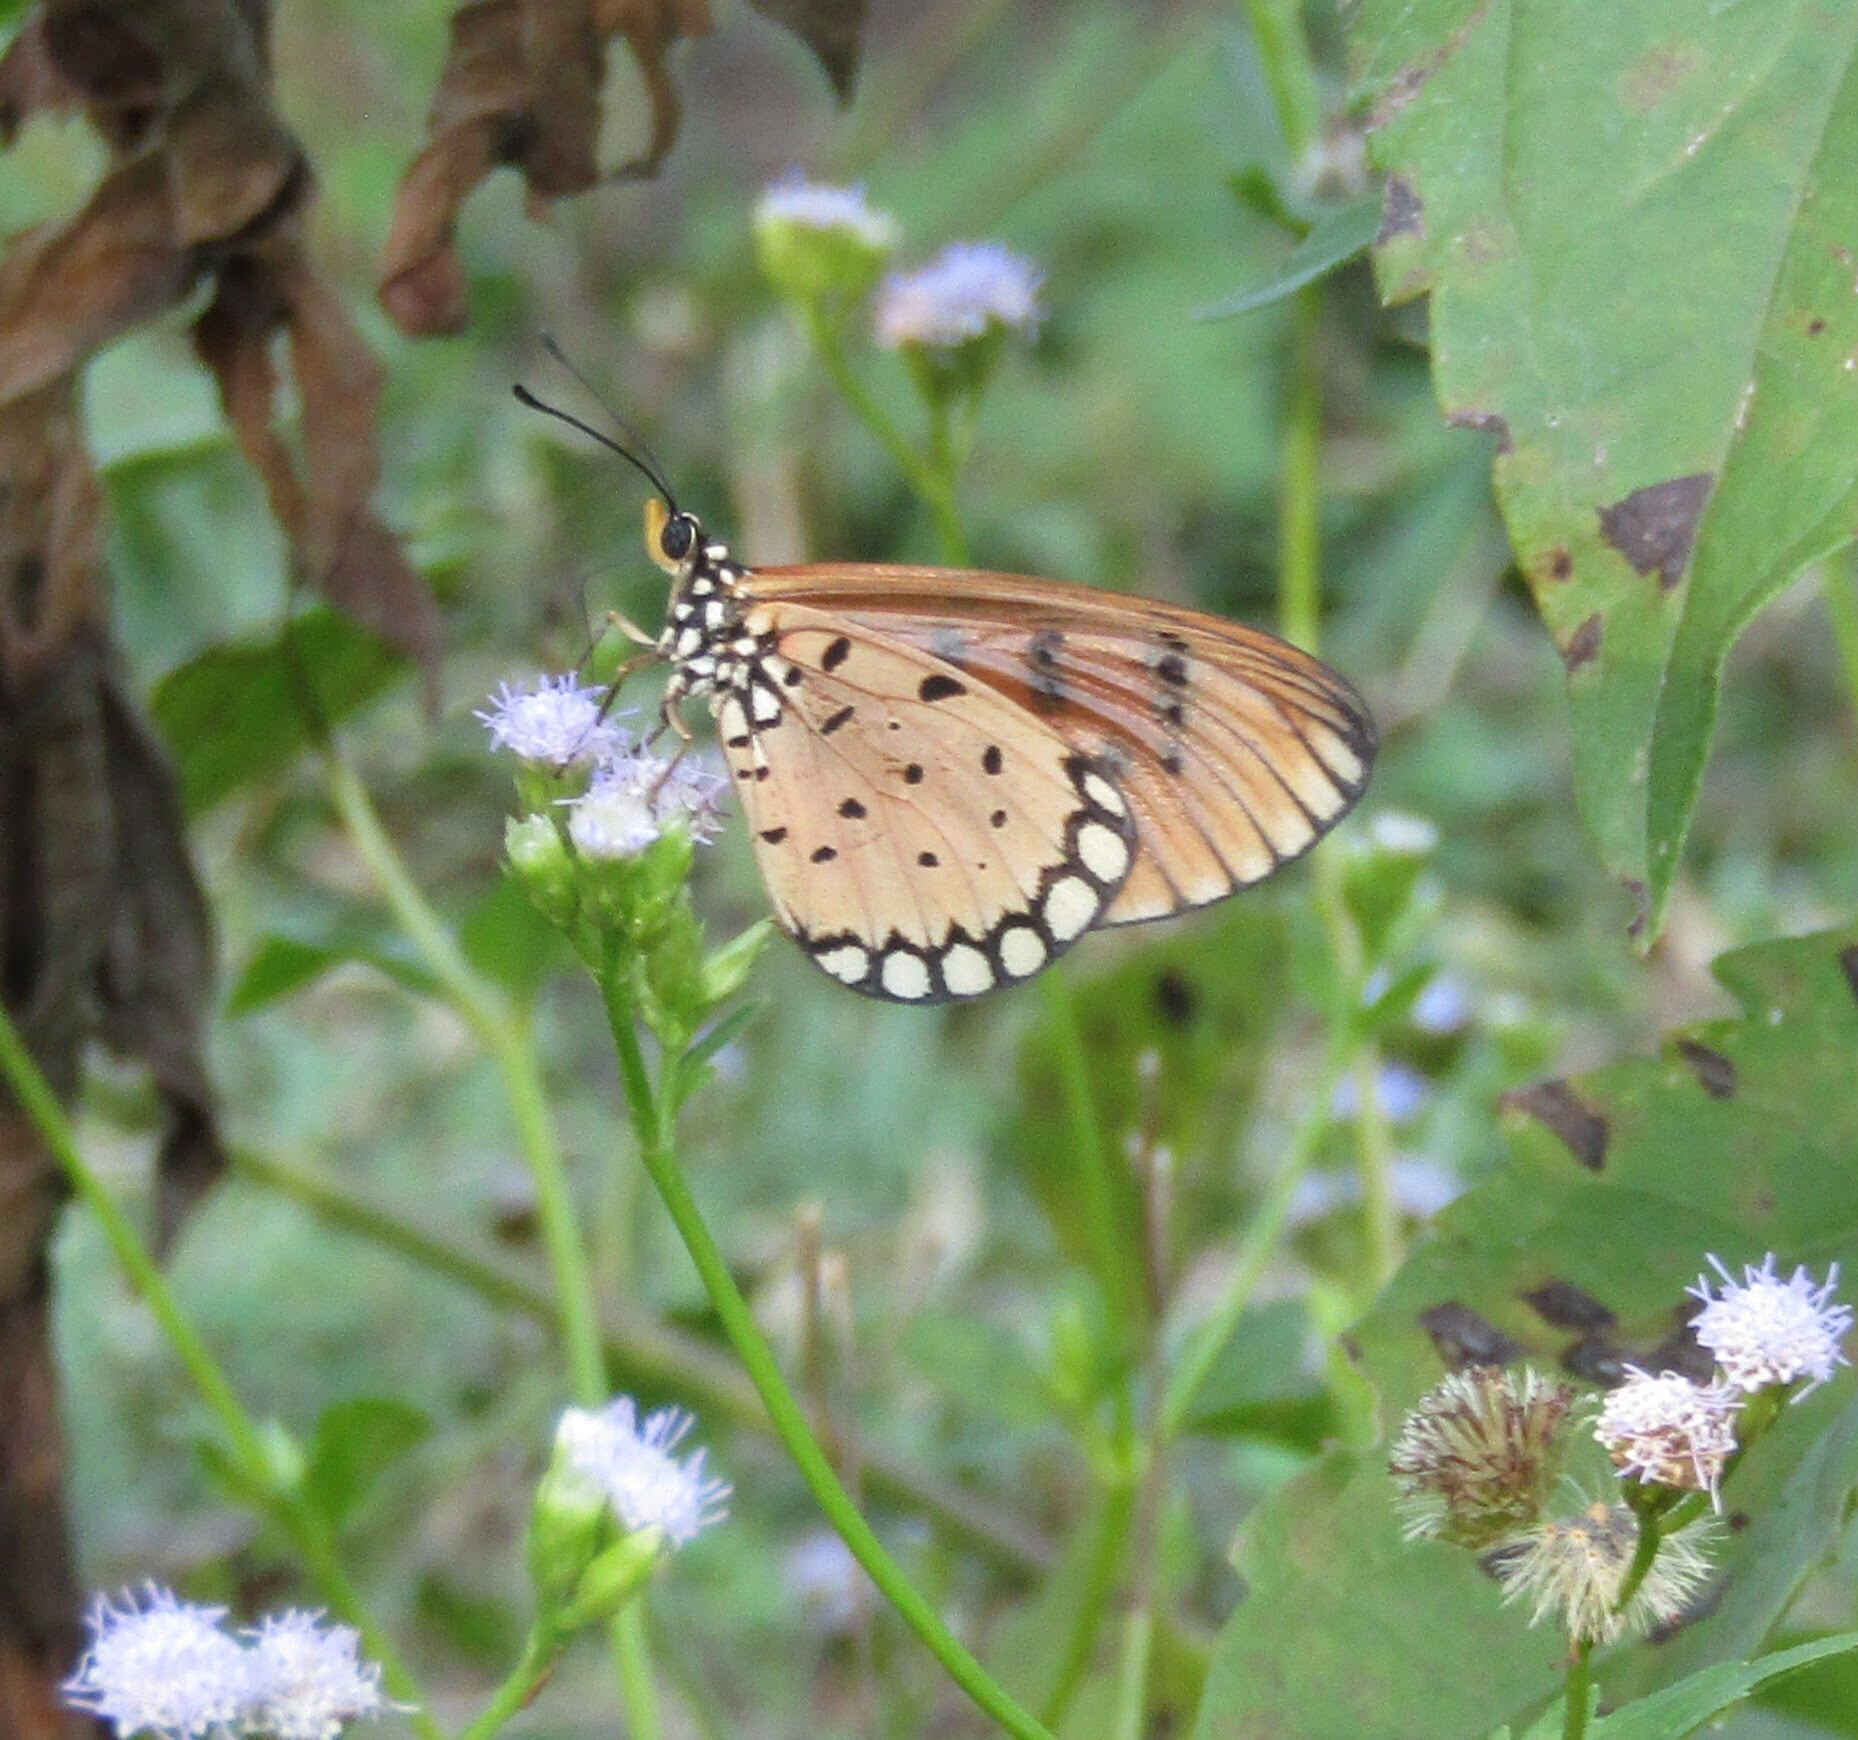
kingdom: Animalia
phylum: Arthropoda
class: Insecta
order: Lepidoptera
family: Nymphalidae
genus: Acraea
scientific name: Acraea terpsicore
